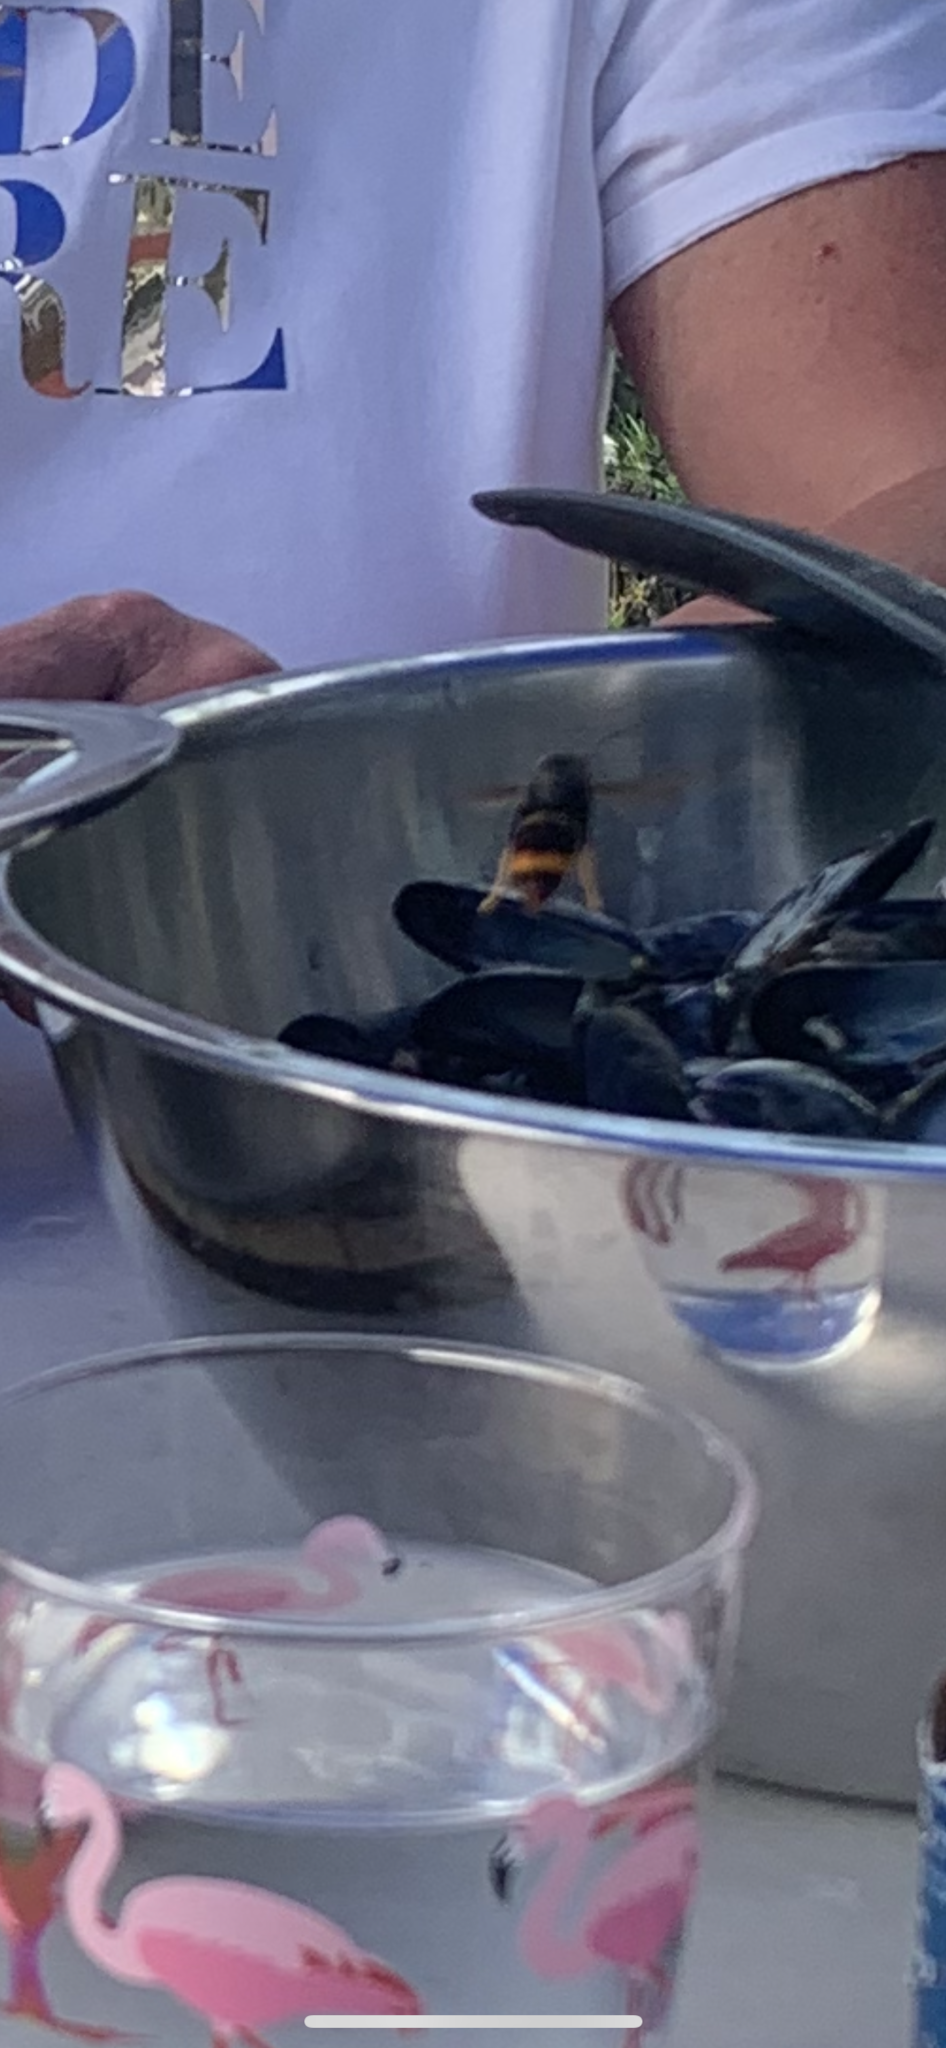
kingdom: Animalia
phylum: Arthropoda
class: Insecta
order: Hymenoptera
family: Vespidae
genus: Vespa
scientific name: Vespa velutina
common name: Asian hornet
